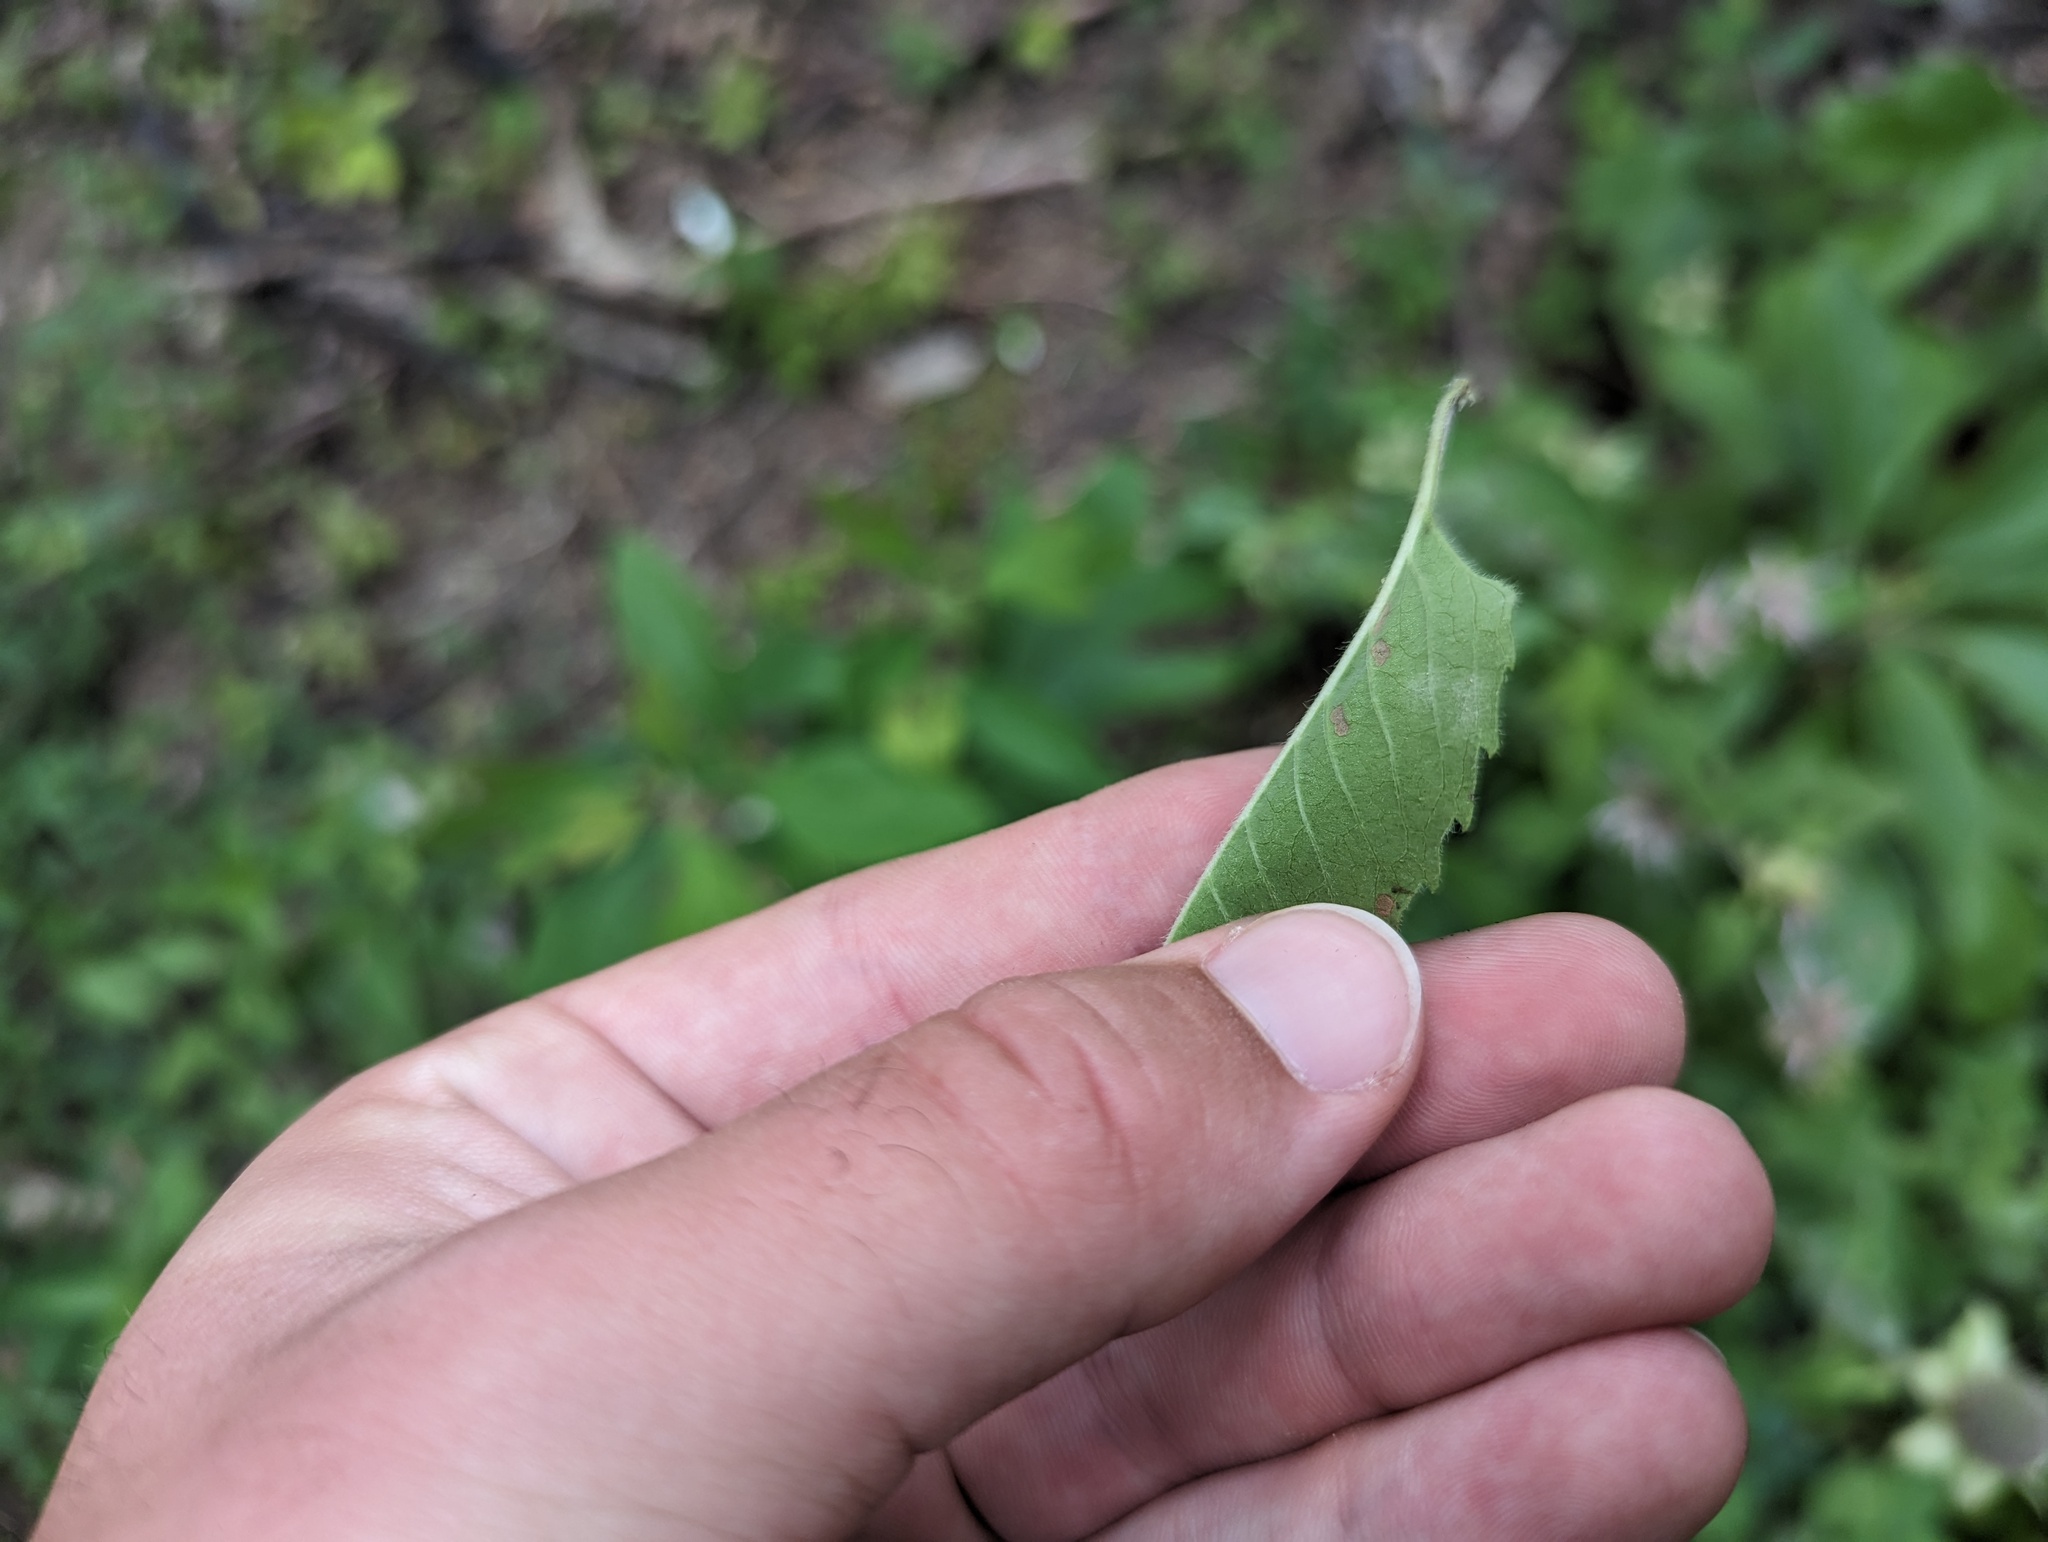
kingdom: Plantae
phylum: Tracheophyta
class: Magnoliopsida
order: Lamiales
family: Lamiaceae
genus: Monarda
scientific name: Monarda fistulosa
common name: Purple beebalm
